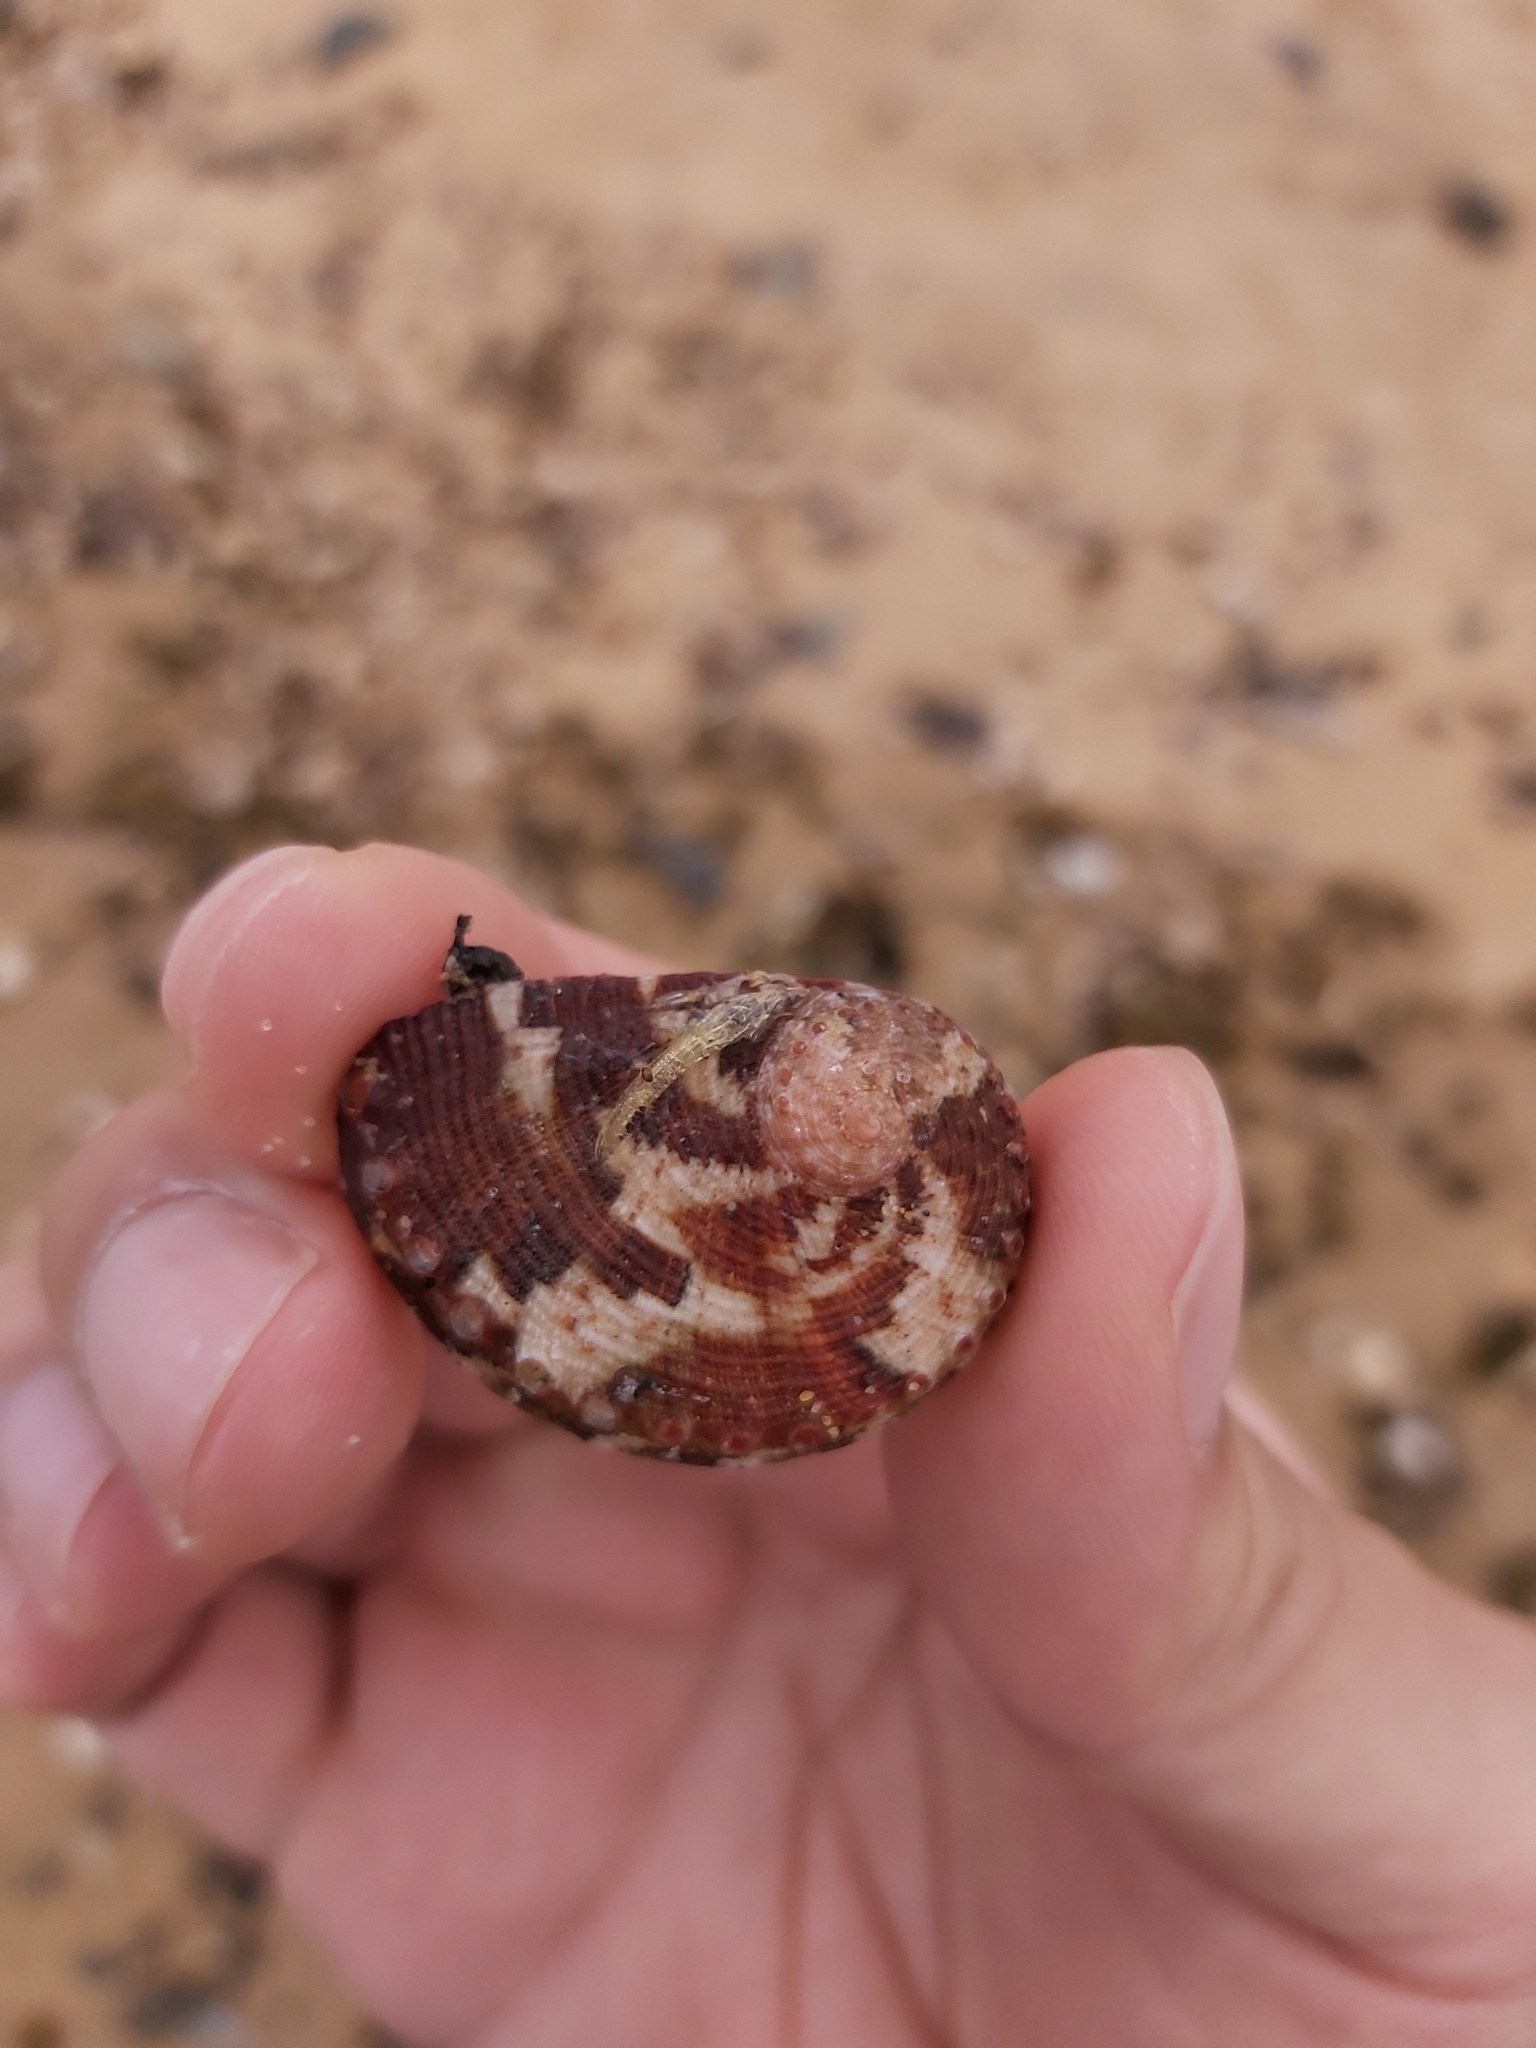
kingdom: Animalia
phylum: Mollusca
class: Gastropoda
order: Lepetellida
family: Haliotidae
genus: Haliotis
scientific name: Haliotis coccoradiata
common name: Reddish-rayed abalone
